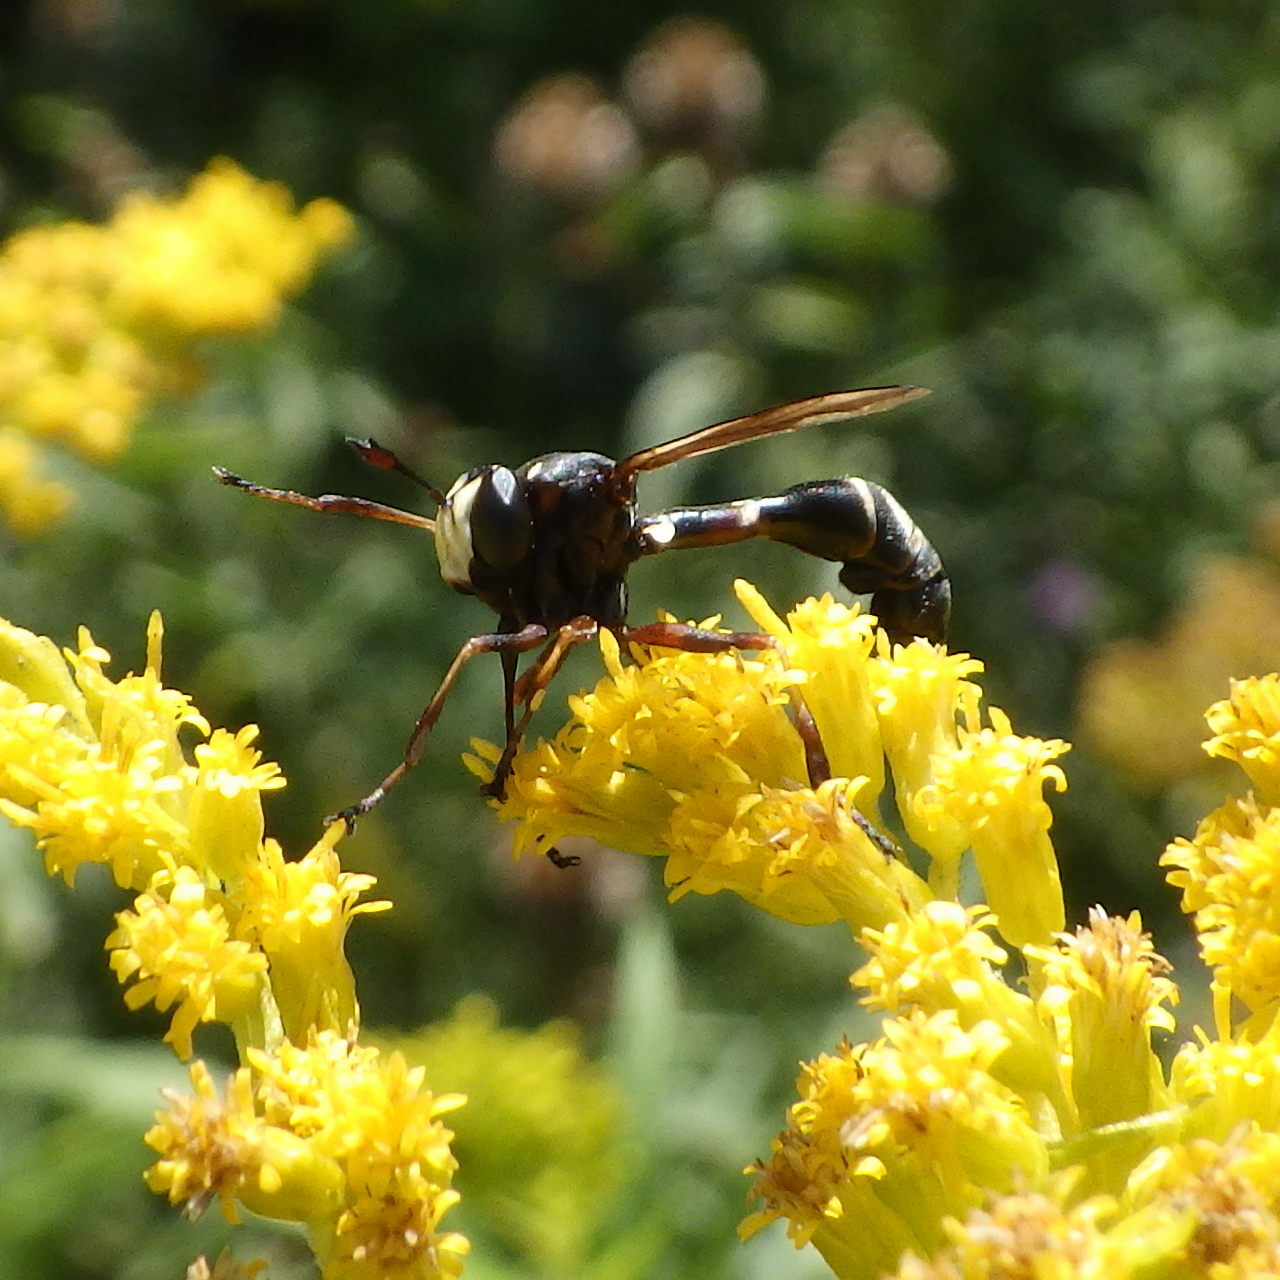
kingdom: Animalia
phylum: Arthropoda
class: Insecta
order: Diptera
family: Conopidae
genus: Physocephala
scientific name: Physocephala furcillata
